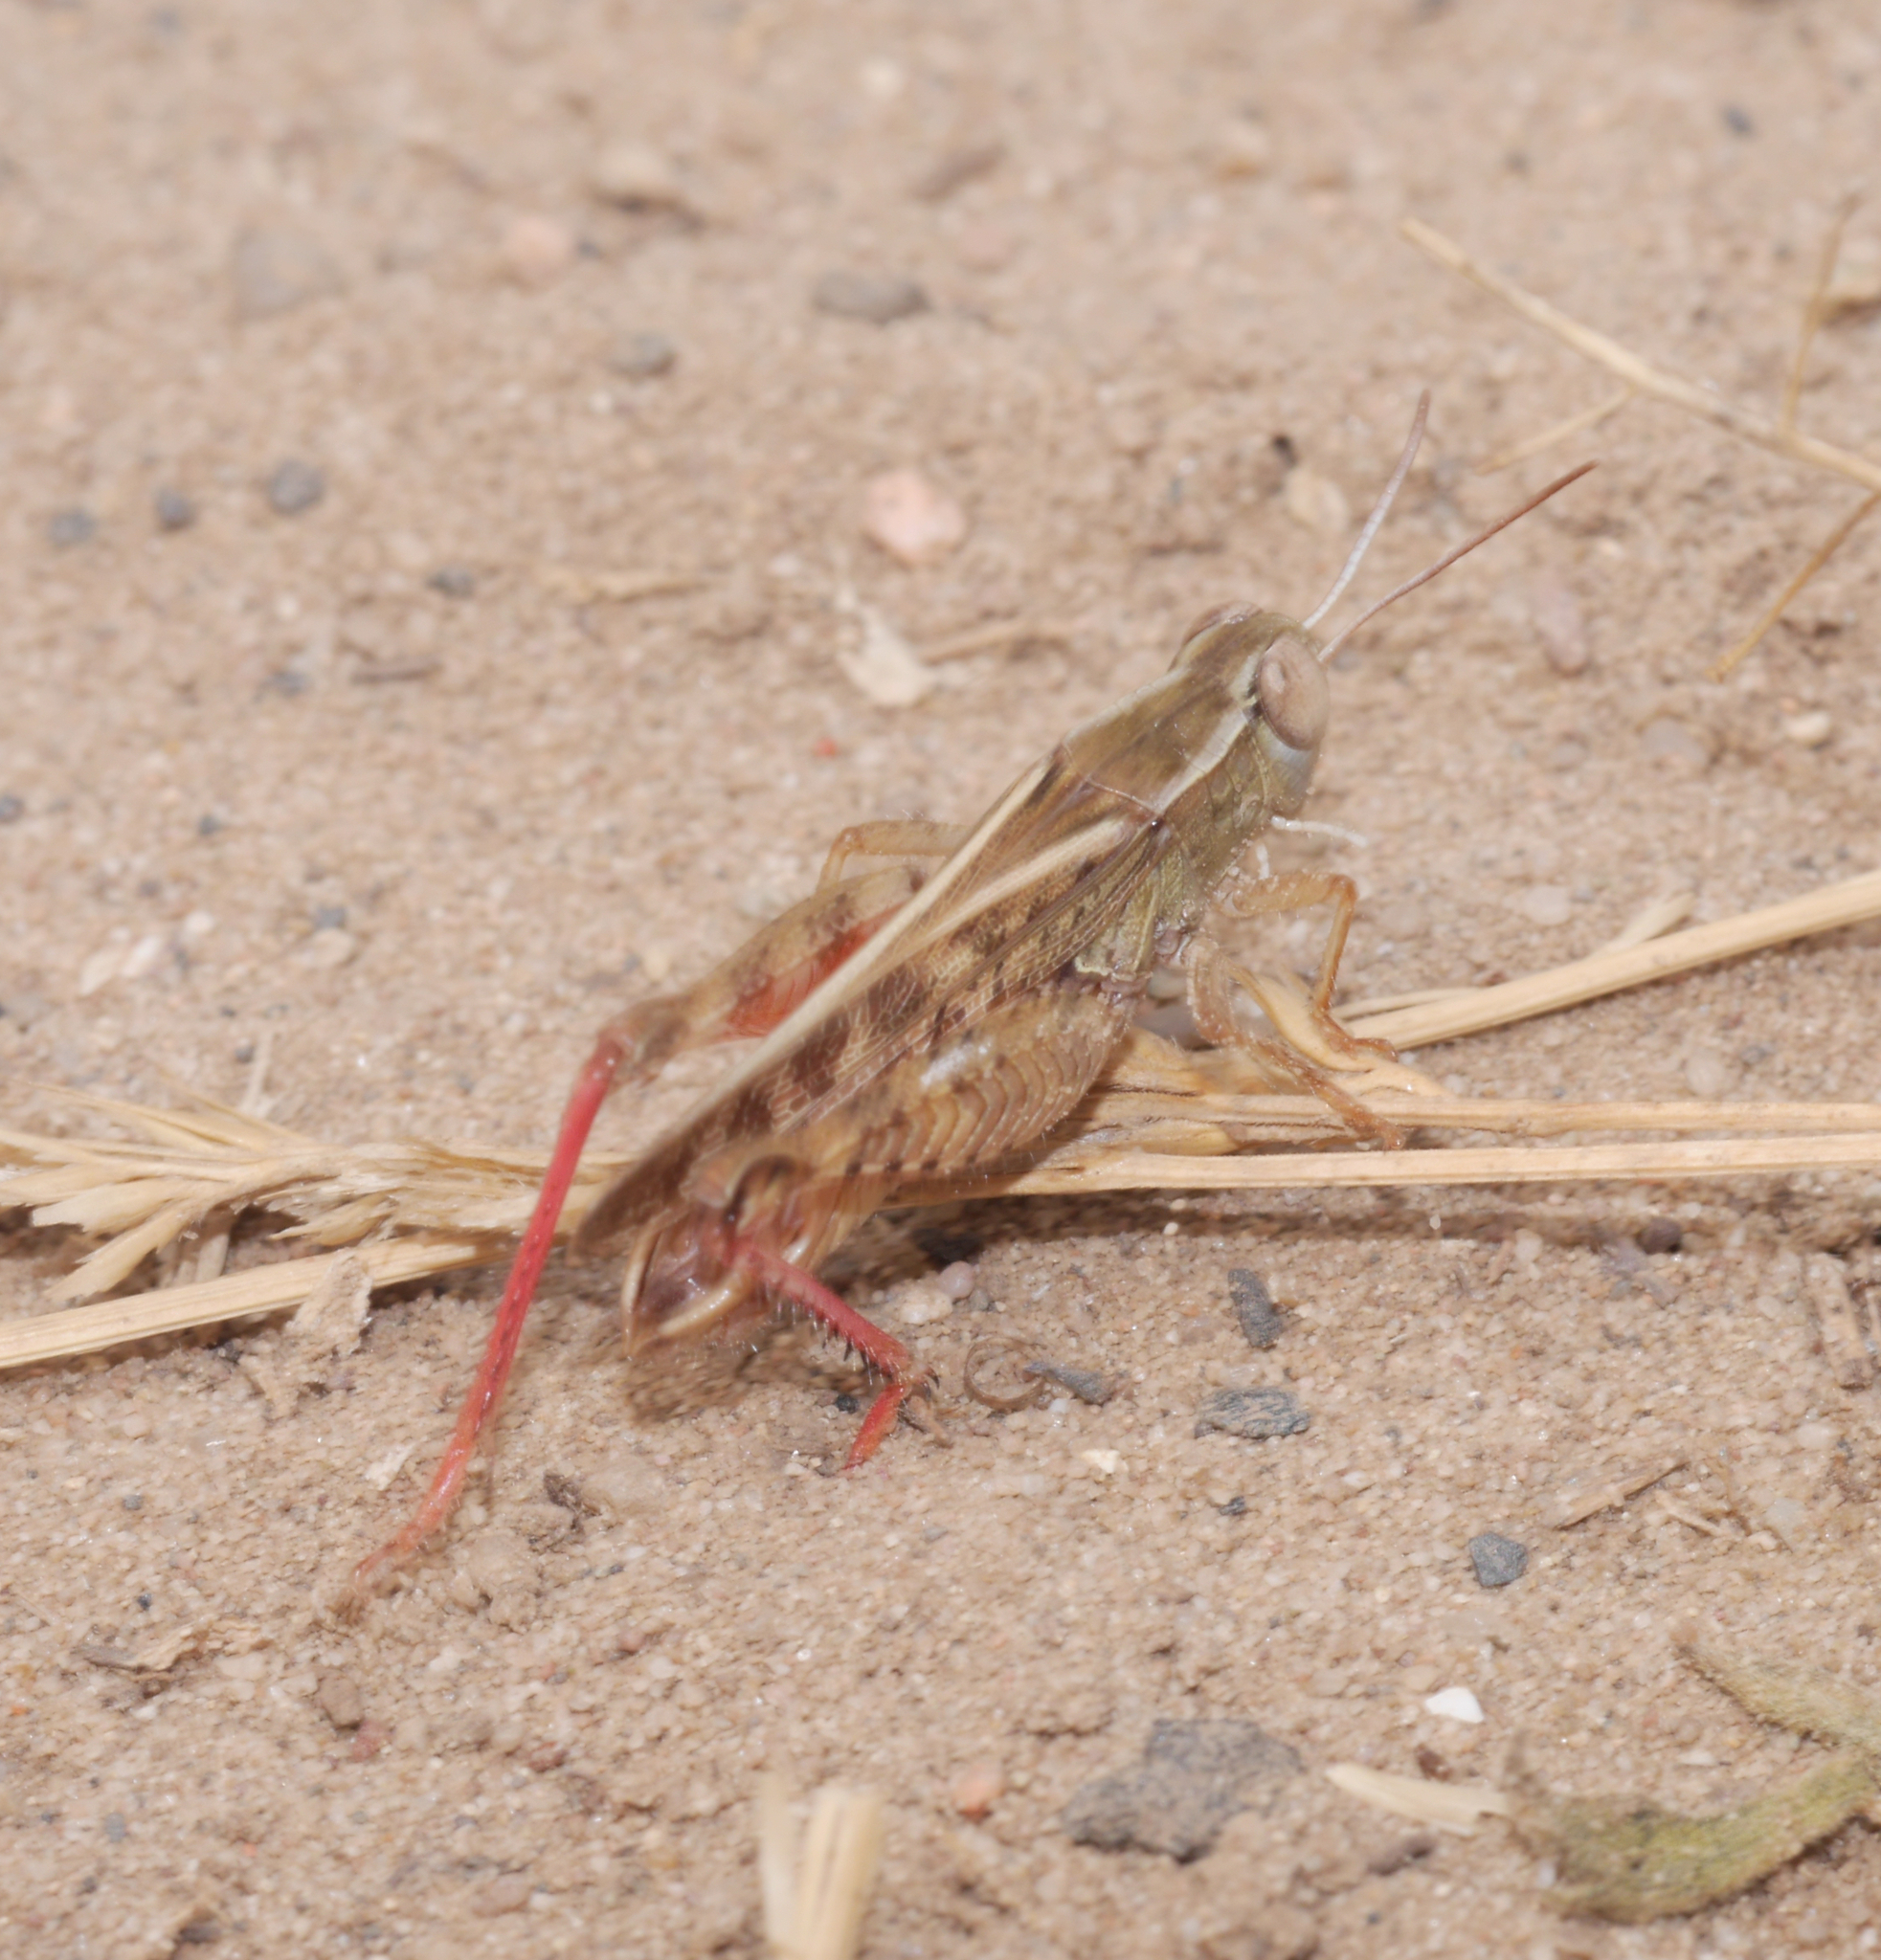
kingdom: Animalia
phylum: Arthropoda
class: Insecta
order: Orthoptera
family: Acrididae
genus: Calliptamus
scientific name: Calliptamus italicus
